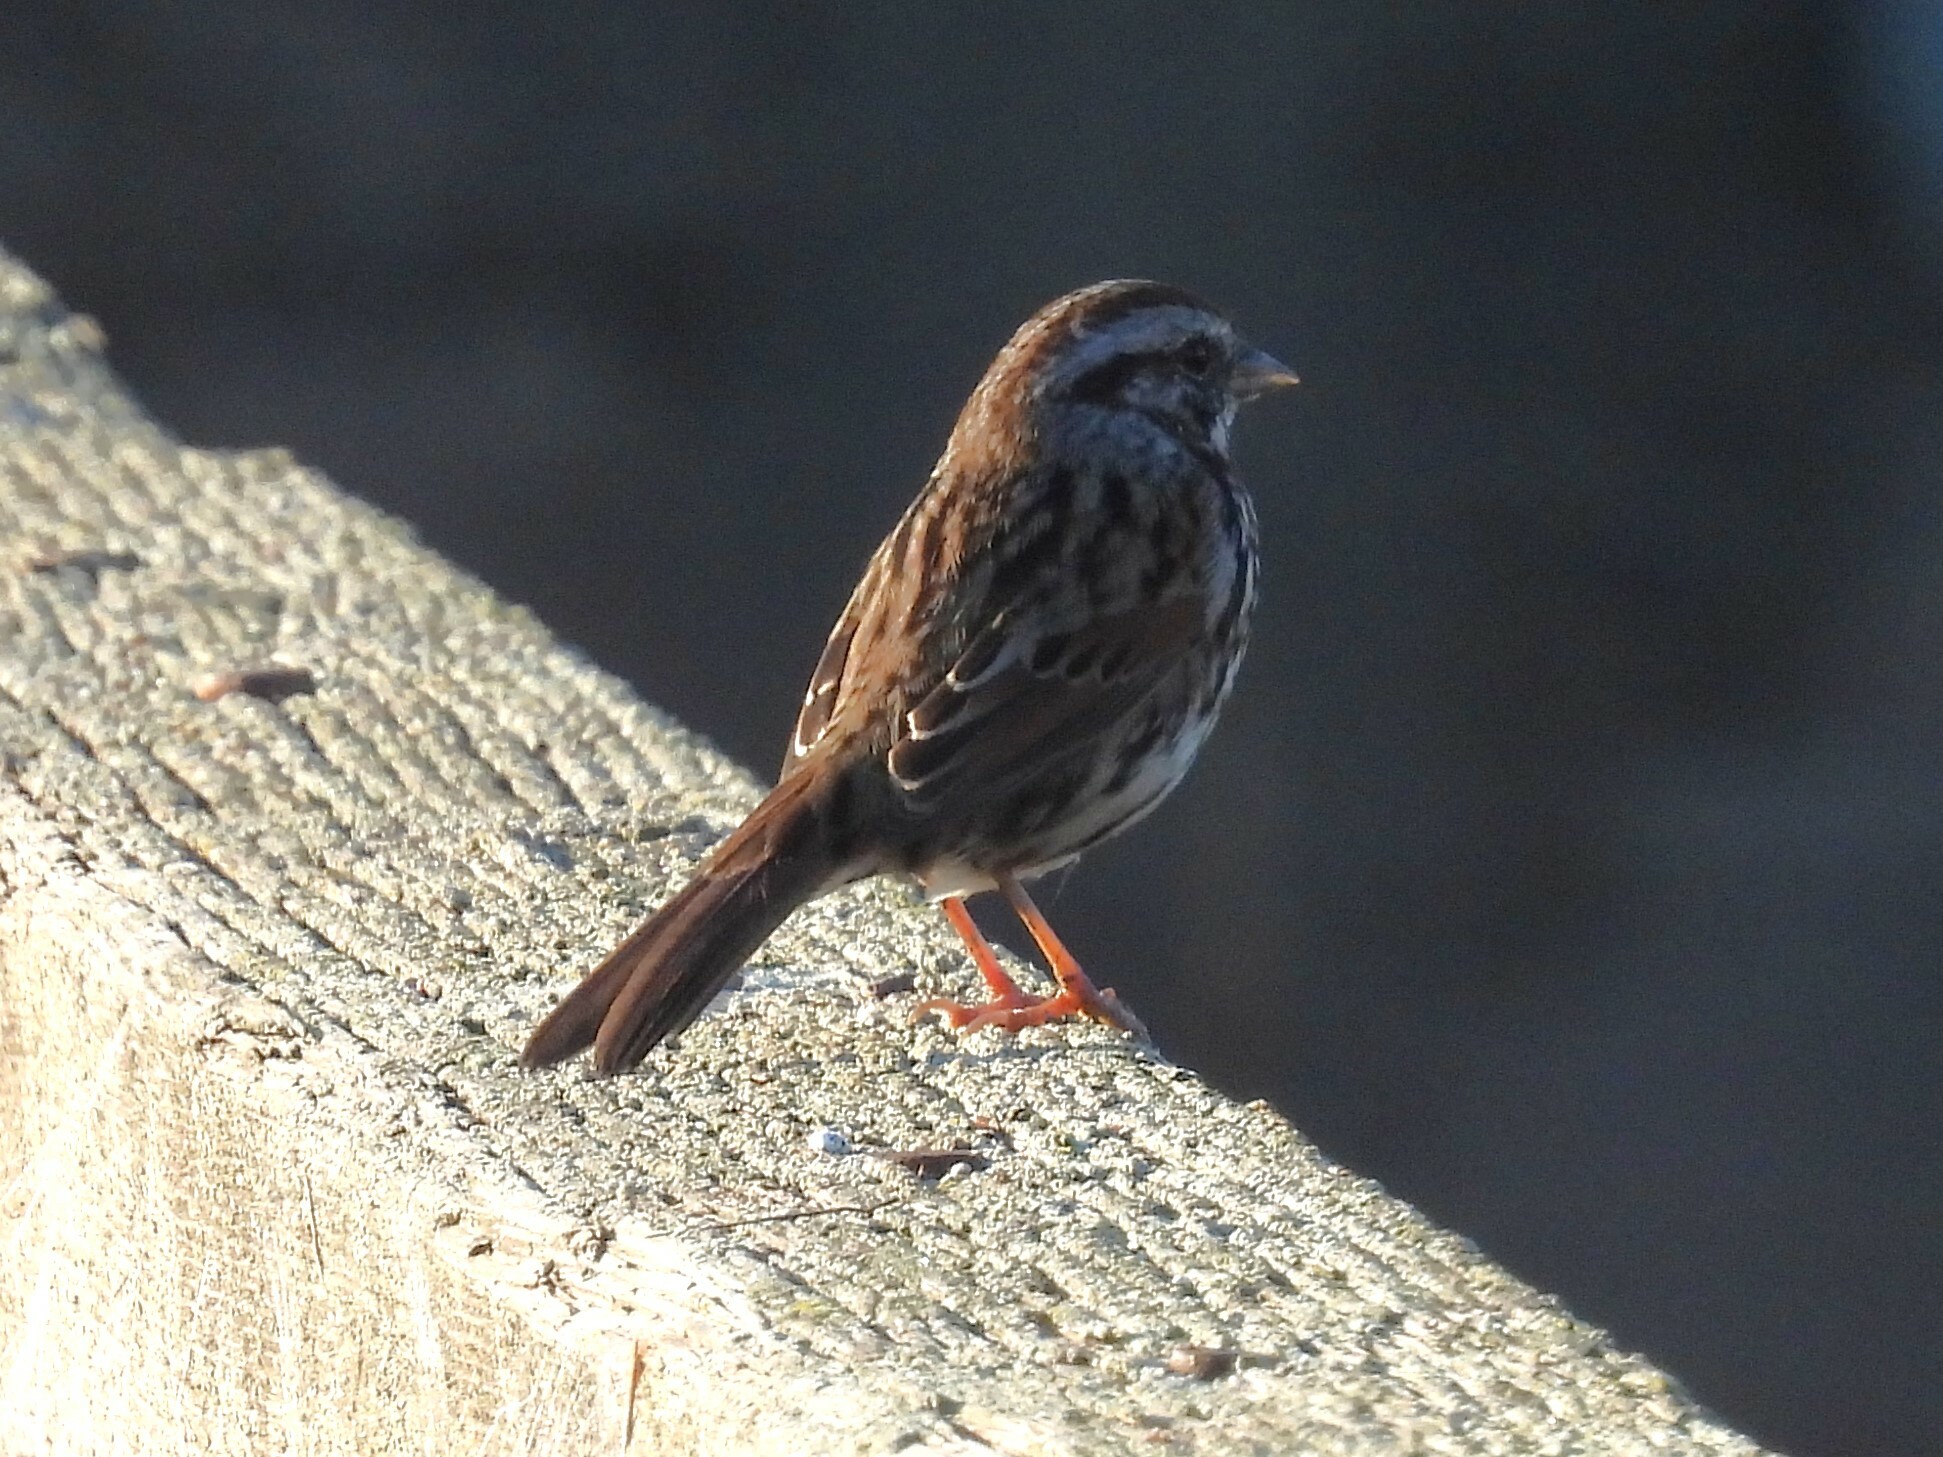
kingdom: Animalia
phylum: Chordata
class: Aves
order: Passeriformes
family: Passerellidae
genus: Melospiza
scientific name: Melospiza melodia
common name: Song sparrow
